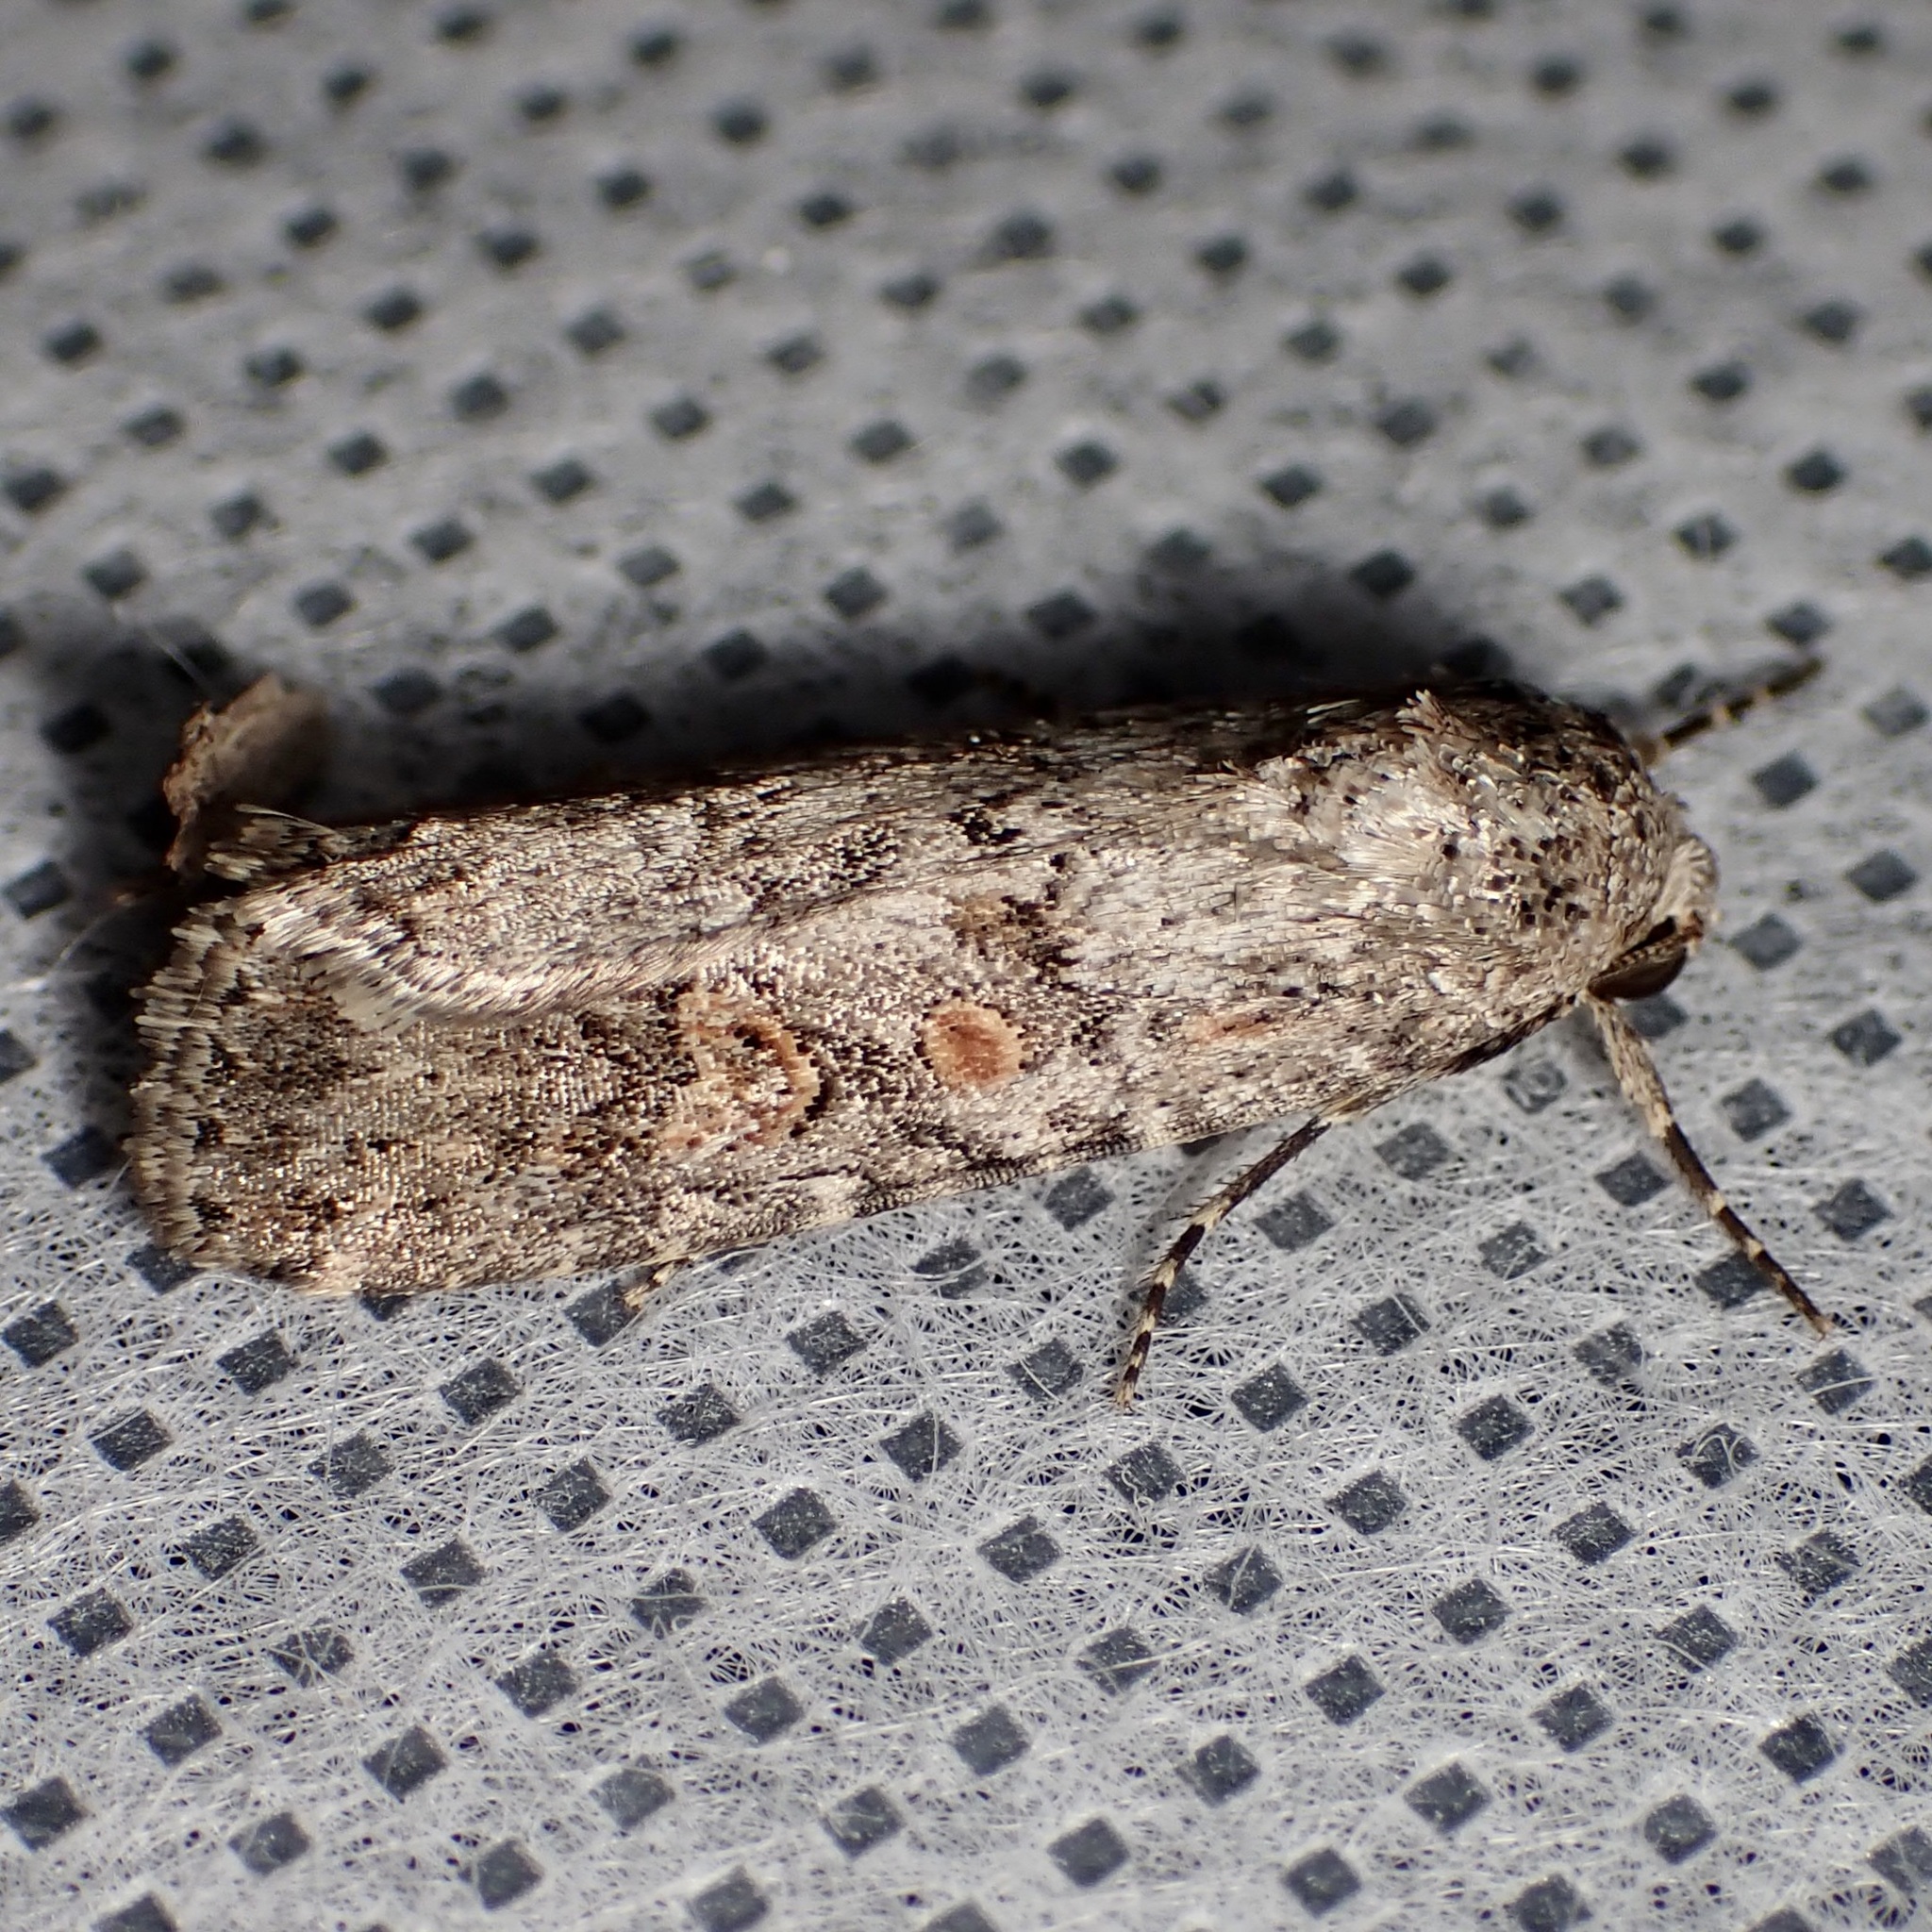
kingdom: Animalia
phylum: Arthropoda
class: Insecta
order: Lepidoptera
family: Noctuidae
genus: Spodoptera
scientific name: Spodoptera exigua
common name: Beet armyworm
